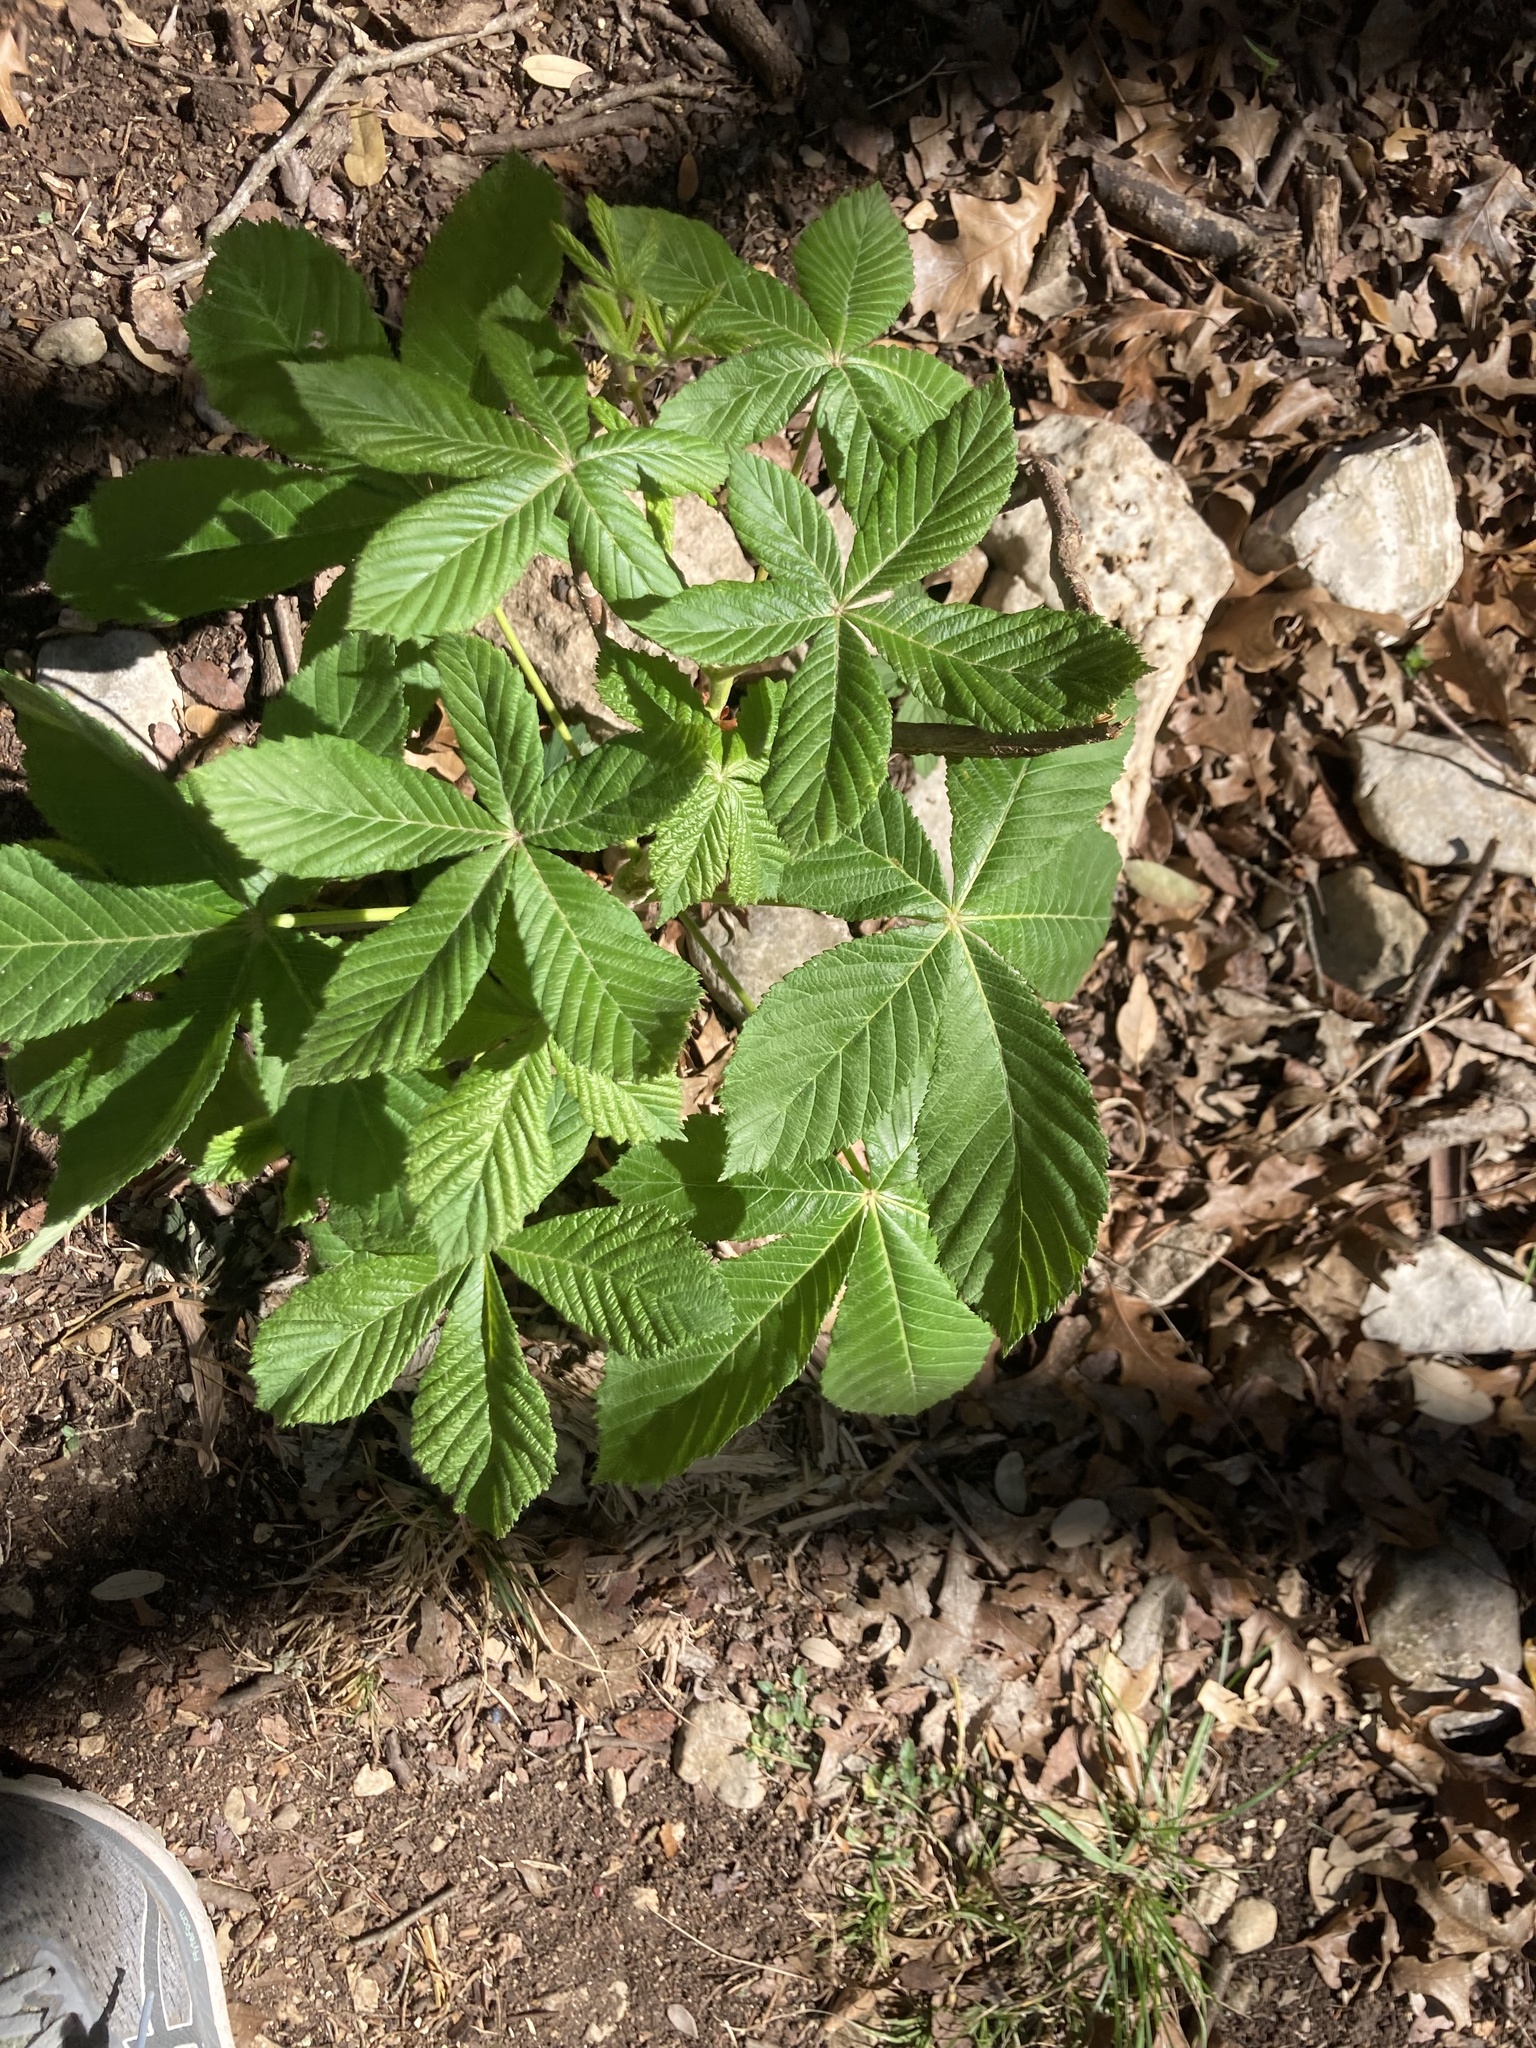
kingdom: Plantae
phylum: Tracheophyta
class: Magnoliopsida
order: Sapindales
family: Sapindaceae
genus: Aesculus
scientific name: Aesculus pavia
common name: Red buckeye
